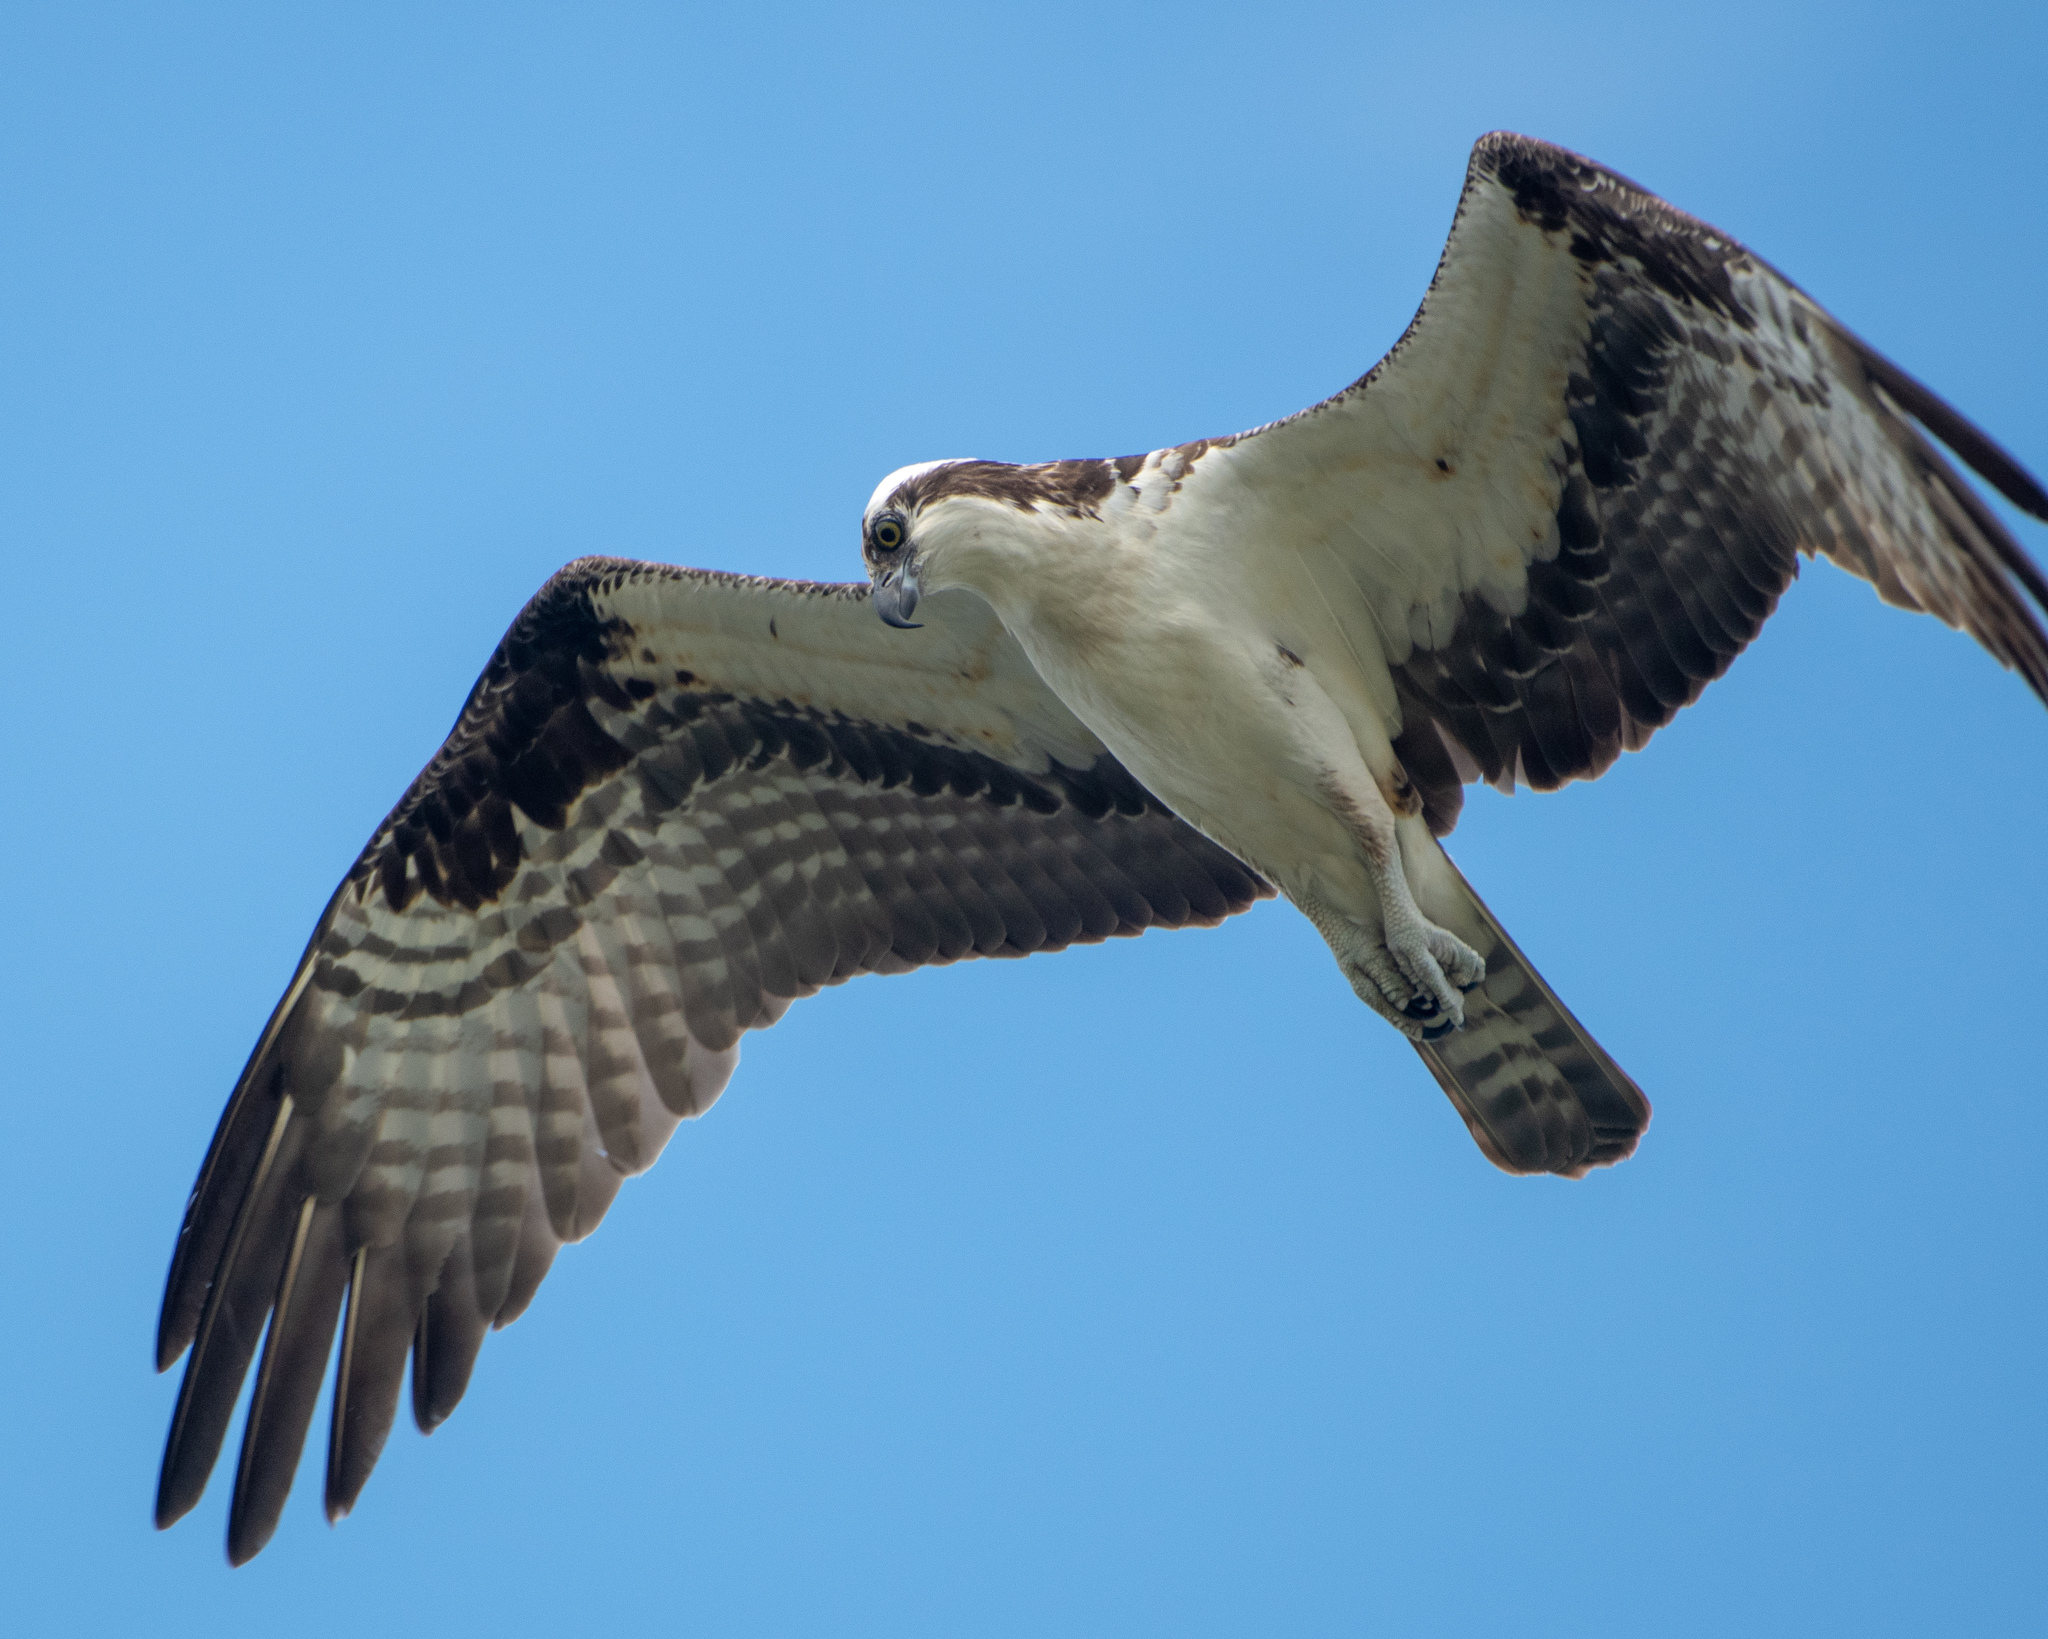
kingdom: Animalia
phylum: Chordata
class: Aves
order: Accipitriformes
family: Pandionidae
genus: Pandion
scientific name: Pandion haliaetus
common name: Osprey
